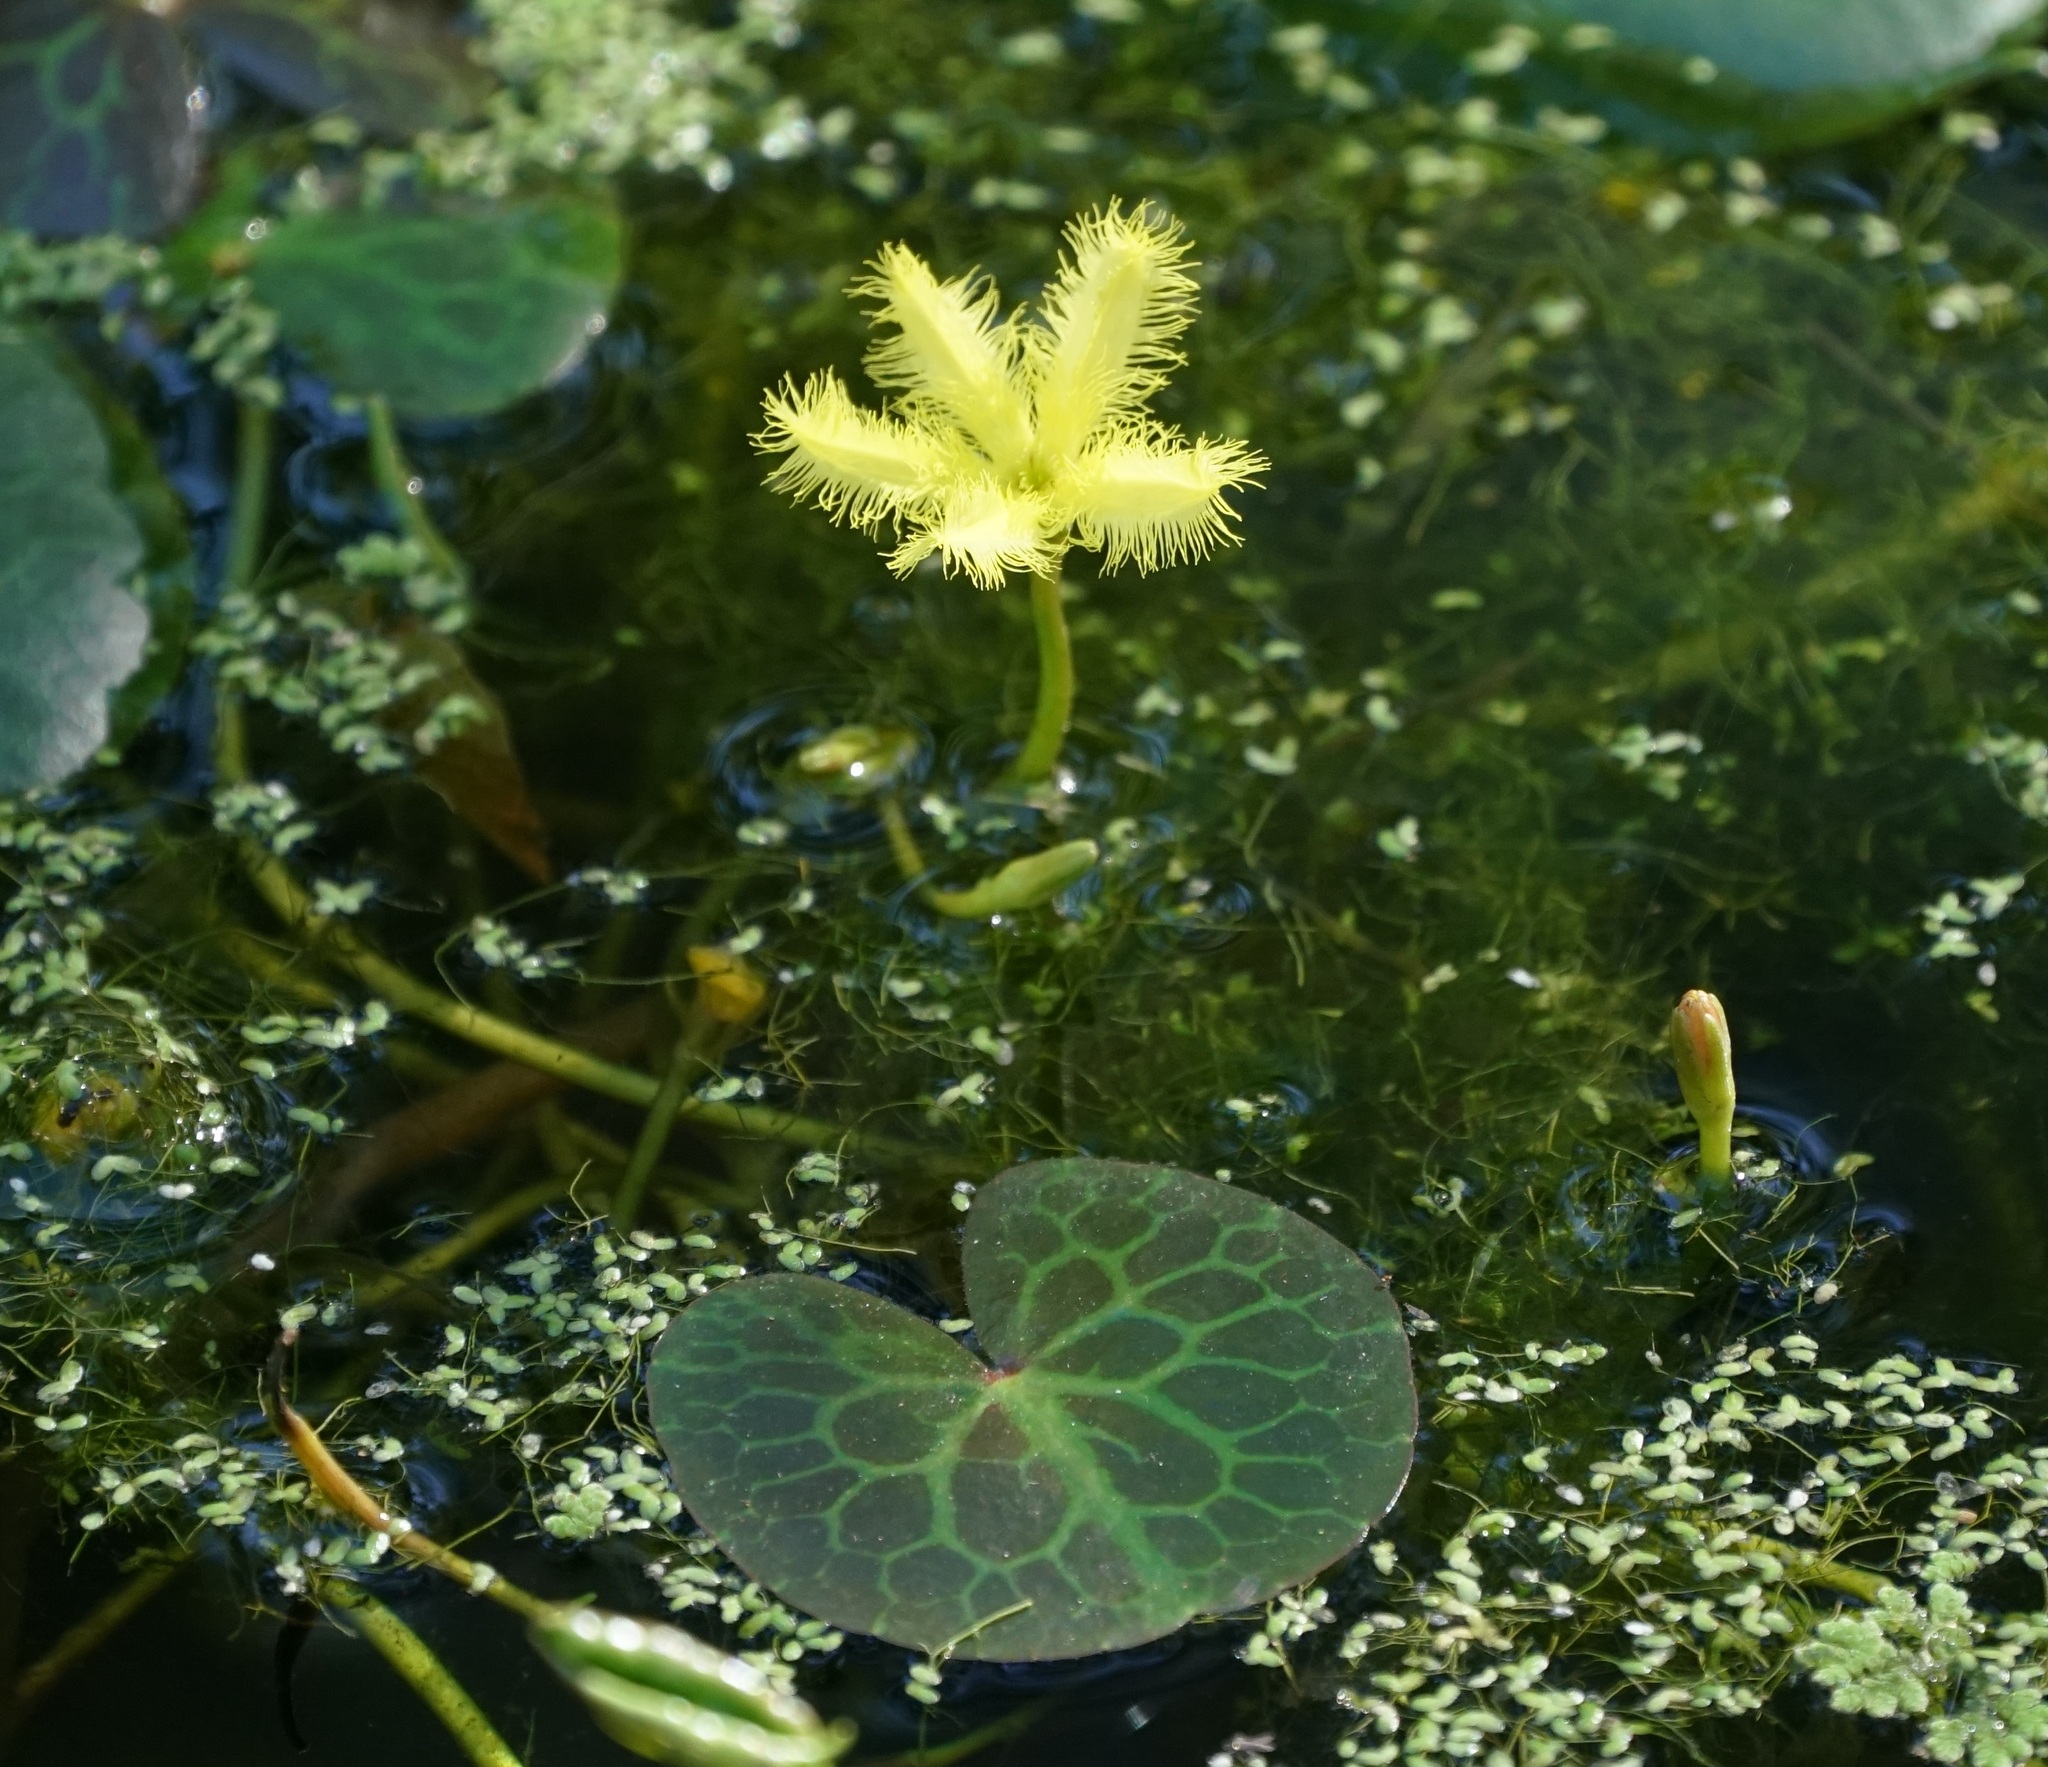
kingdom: Plantae
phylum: Tracheophyta
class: Magnoliopsida
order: Asterales
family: Menyanthaceae
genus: Nymphoides
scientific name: Nymphoides geminata
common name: Entire marshwort
